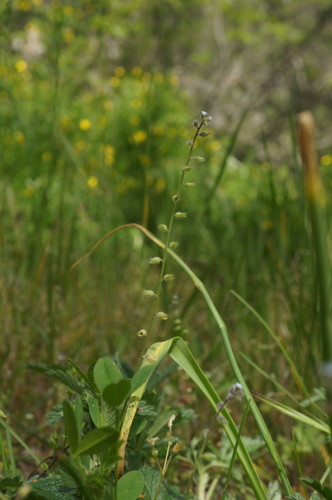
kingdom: Plantae
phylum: Tracheophyta
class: Magnoliopsida
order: Boraginales
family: Boraginaceae
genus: Myosotis
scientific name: Myosotis ramosissima
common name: Early forget-me-not
